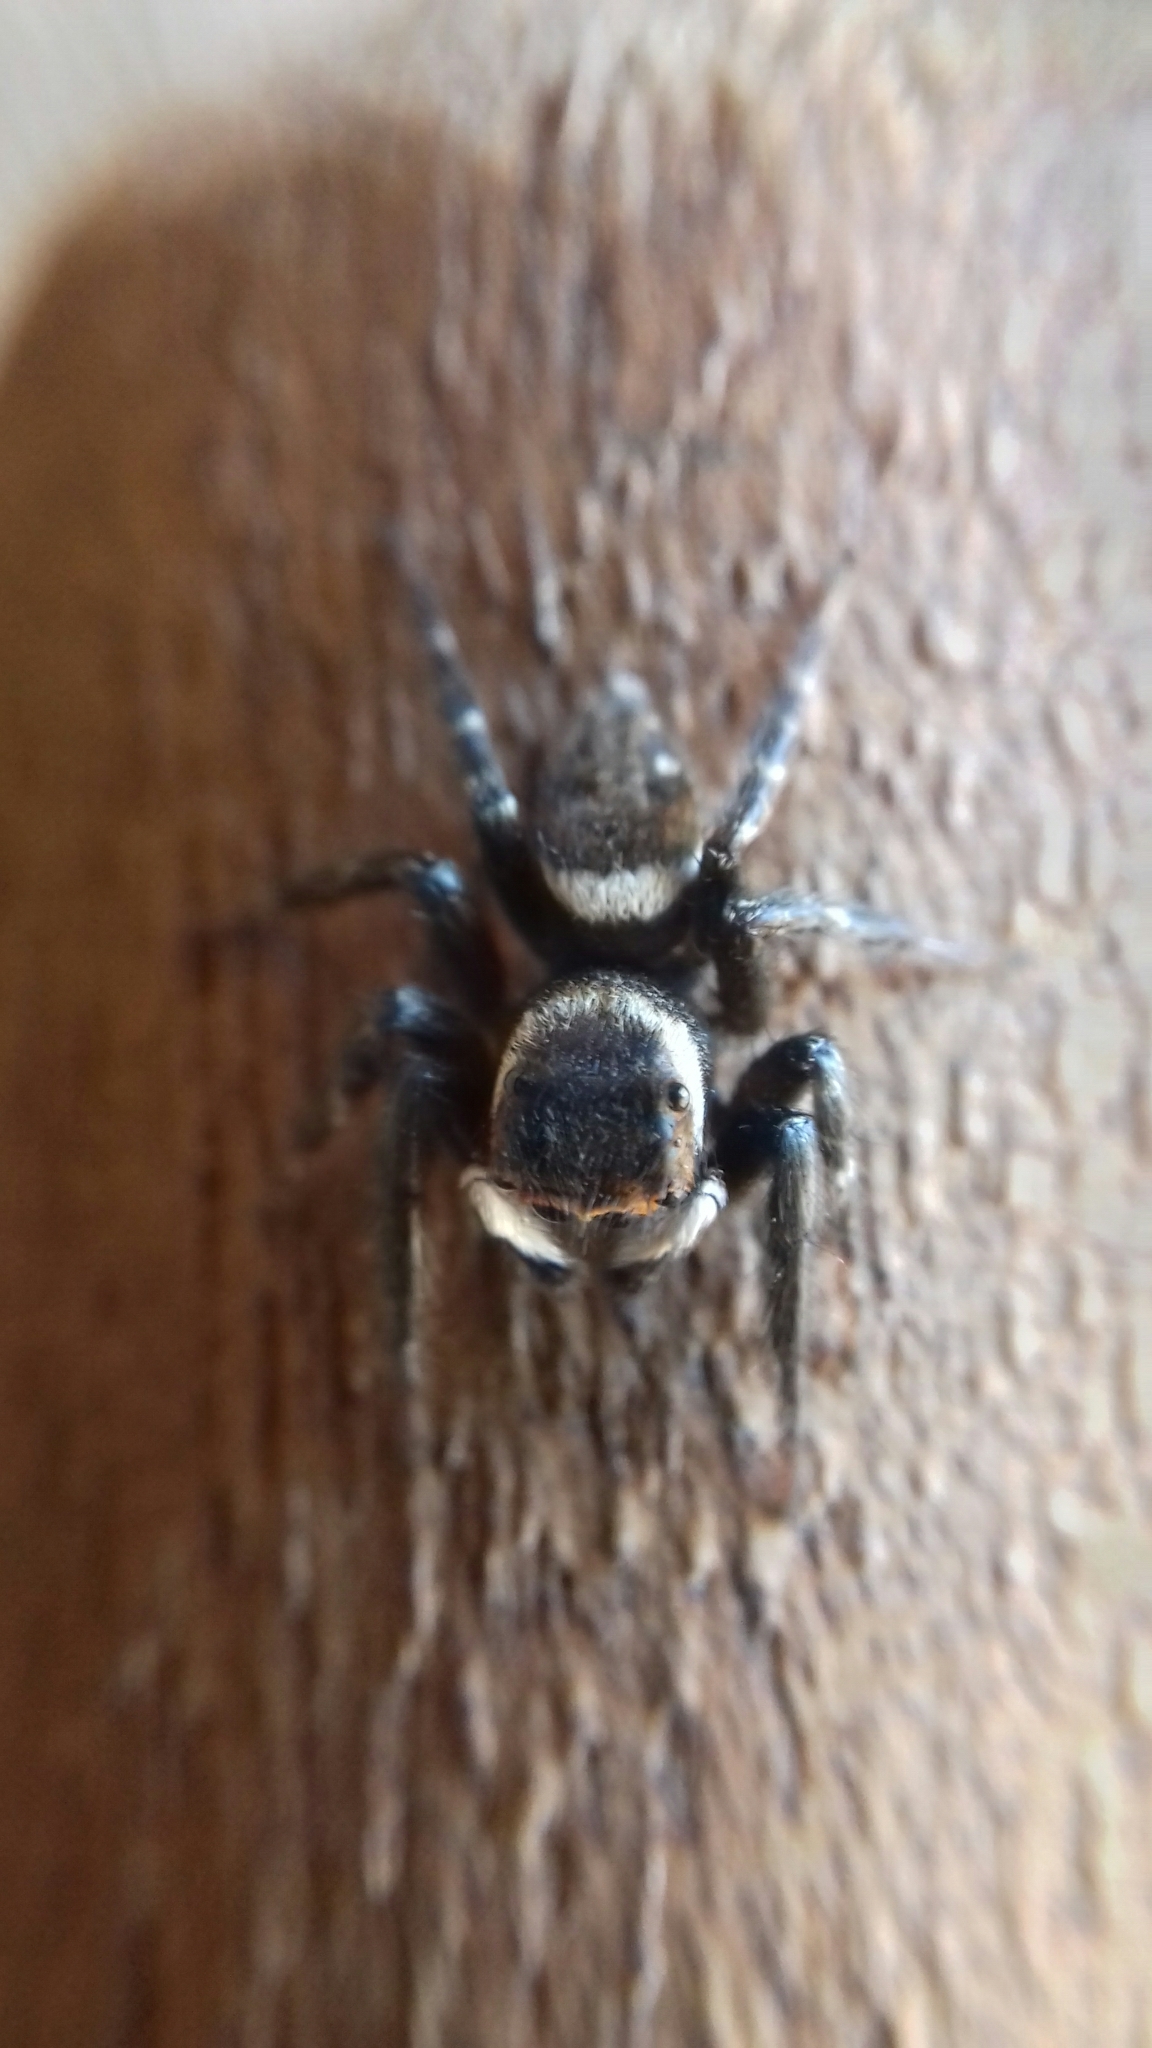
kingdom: Animalia
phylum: Arthropoda
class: Arachnida
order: Araneae
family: Salticidae
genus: Hasarius
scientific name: Hasarius adansoni
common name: Jumping spider
